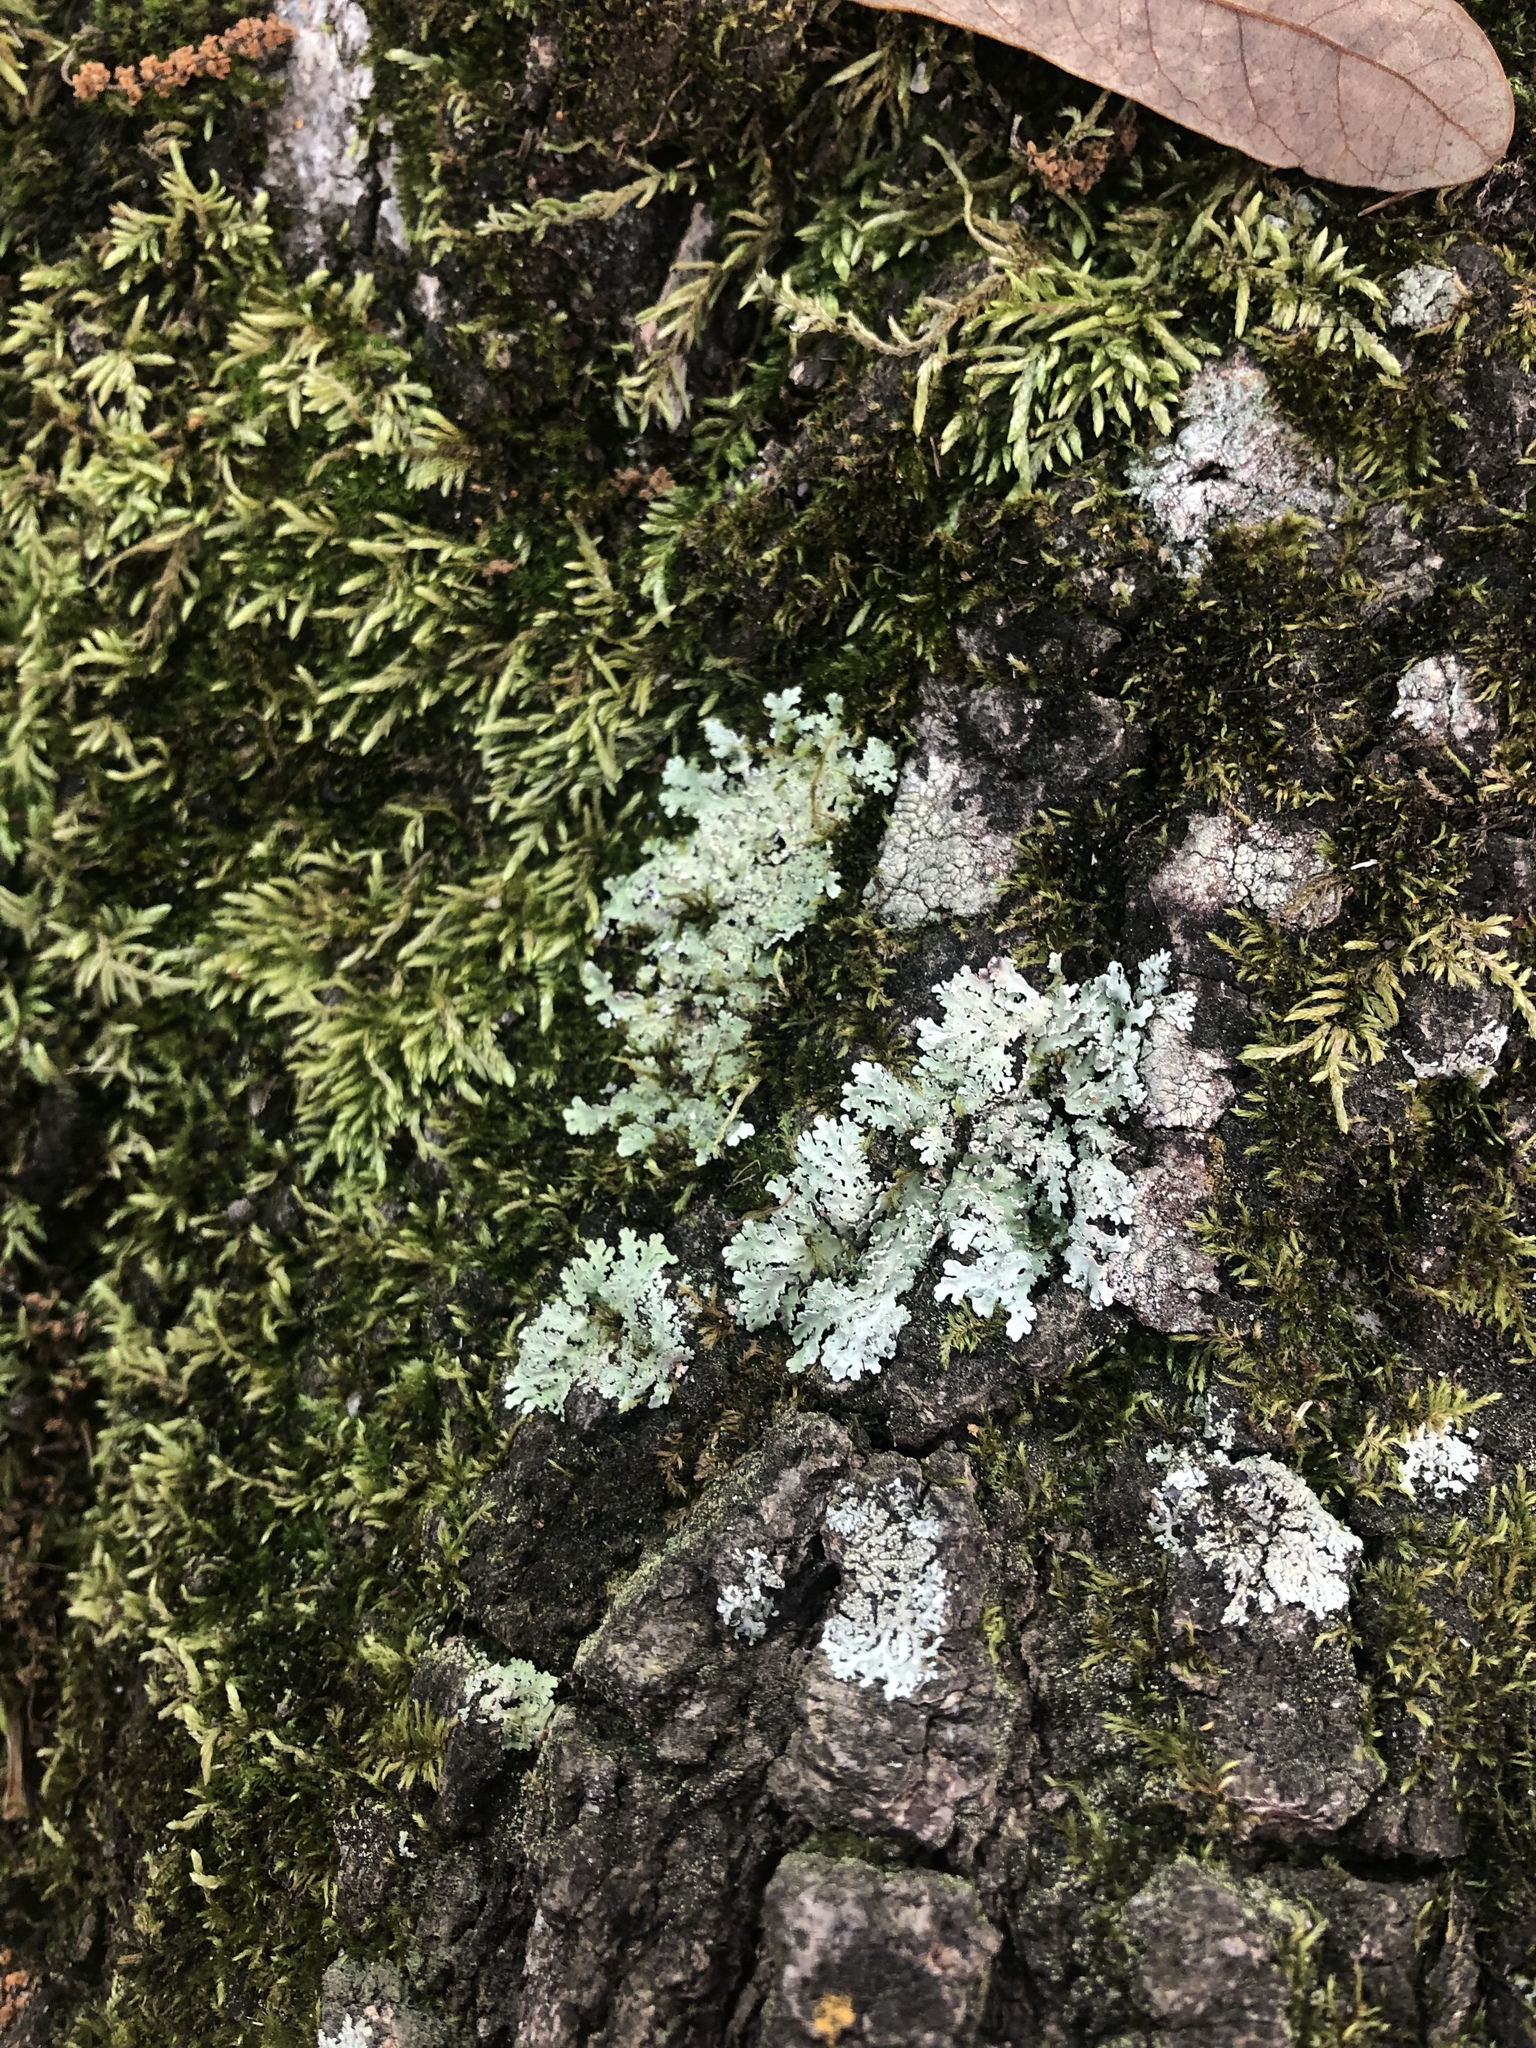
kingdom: Fungi
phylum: Ascomycota
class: Lecanoromycetes
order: Lecanorales
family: Parmeliaceae
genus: Flavoparmelia
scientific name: Flavoparmelia caperata
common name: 40-mile per hour lichen
